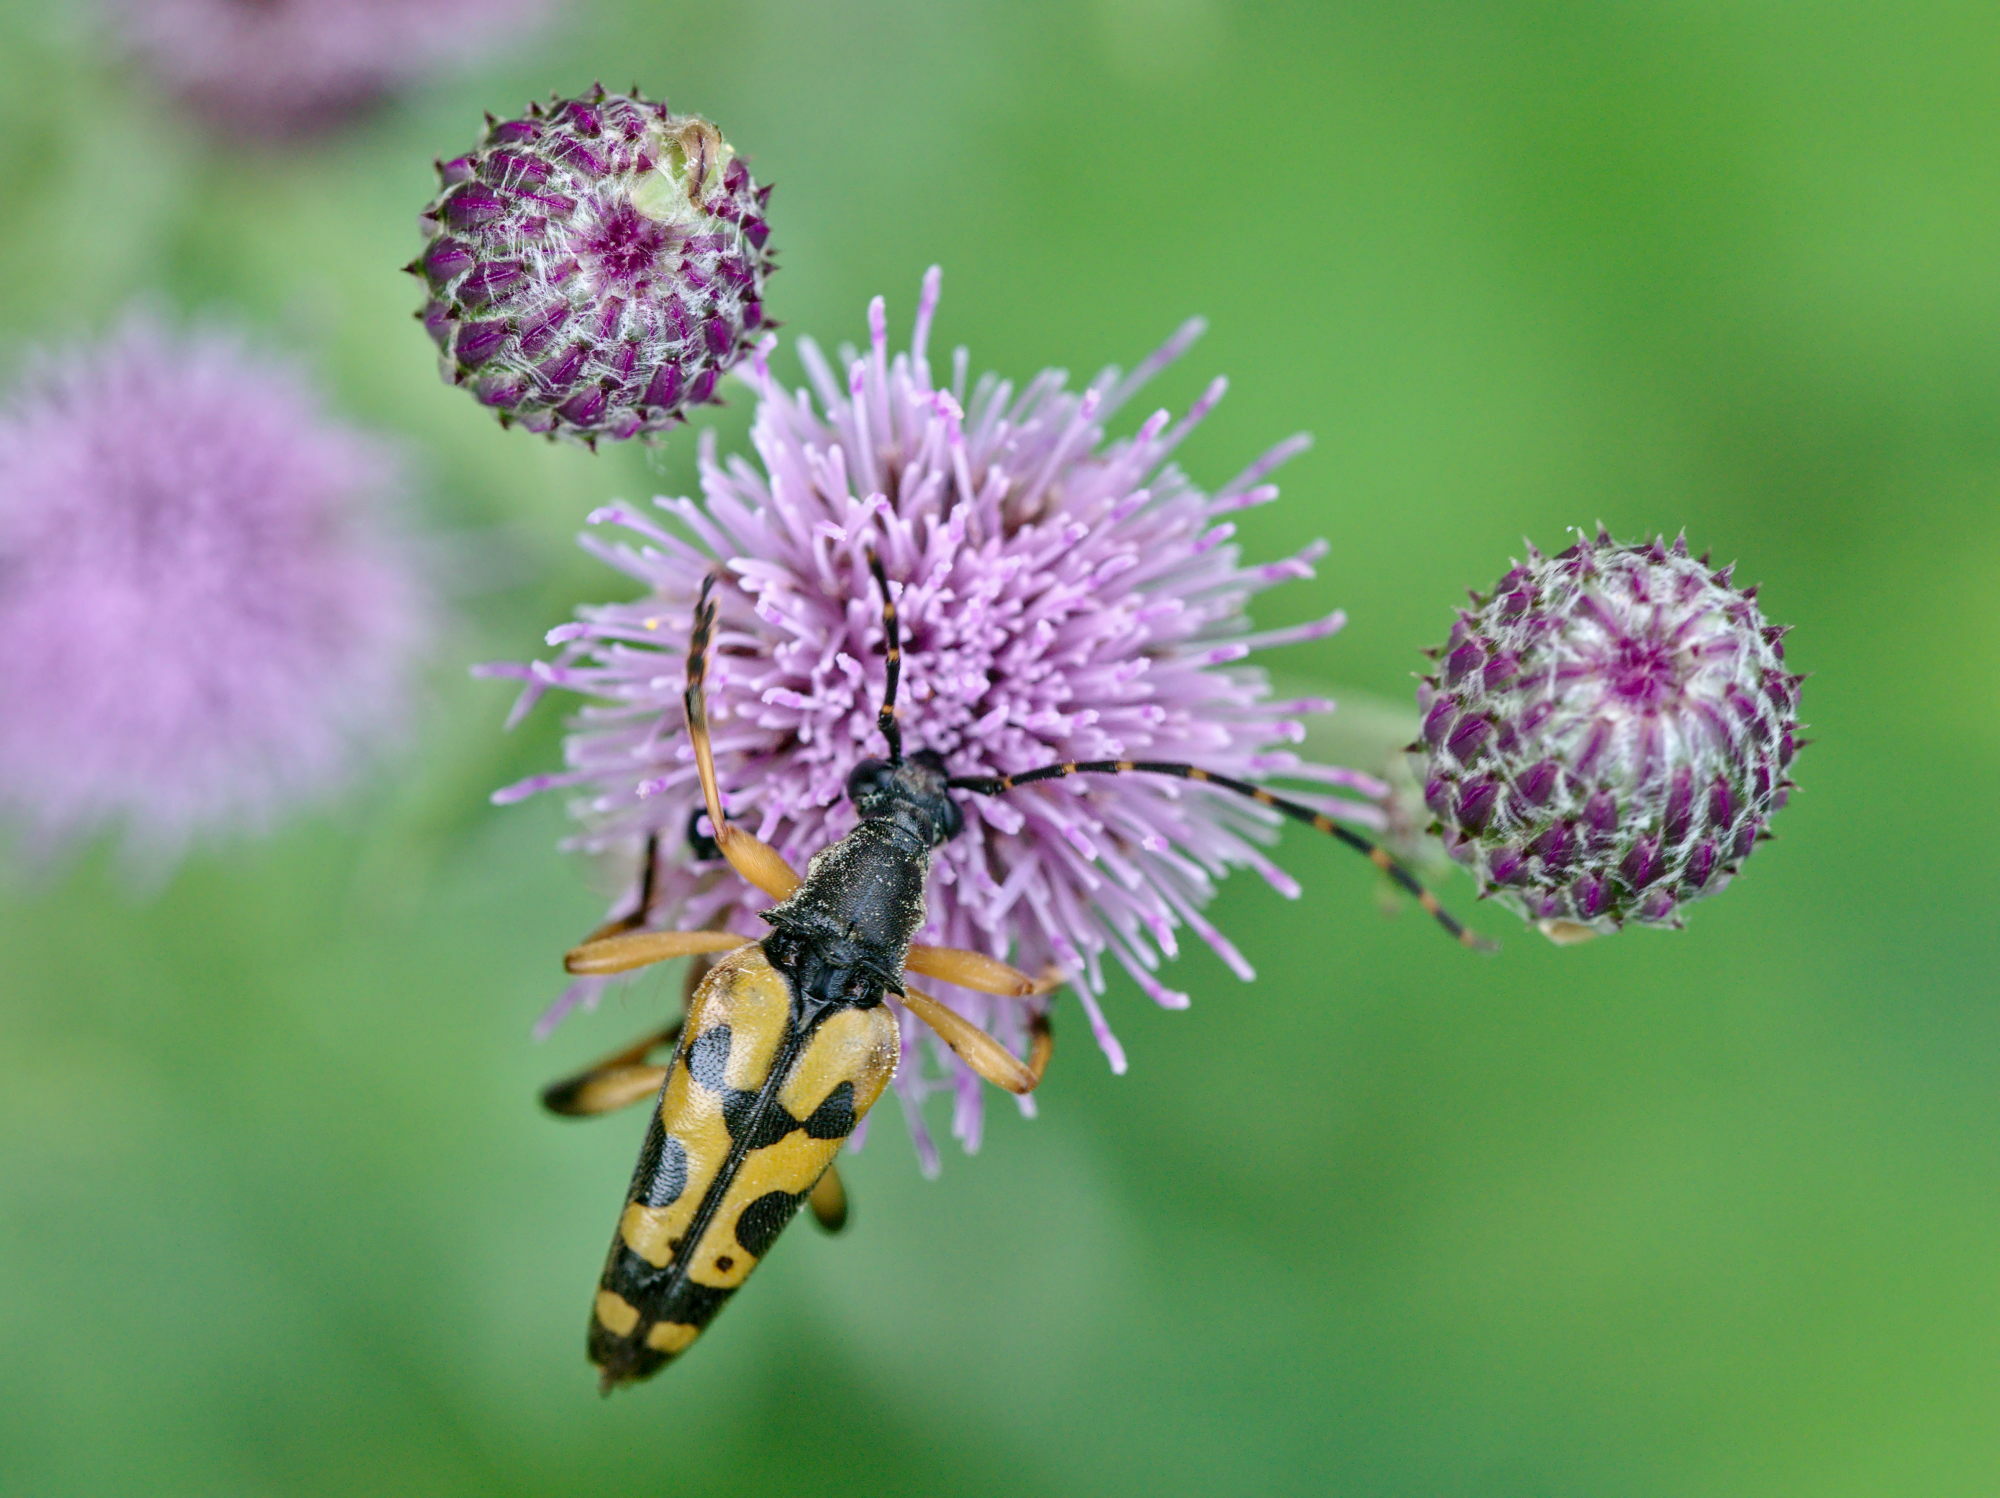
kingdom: Animalia
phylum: Arthropoda
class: Insecta
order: Coleoptera
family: Cerambycidae
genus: Rutpela
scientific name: Rutpela maculata
